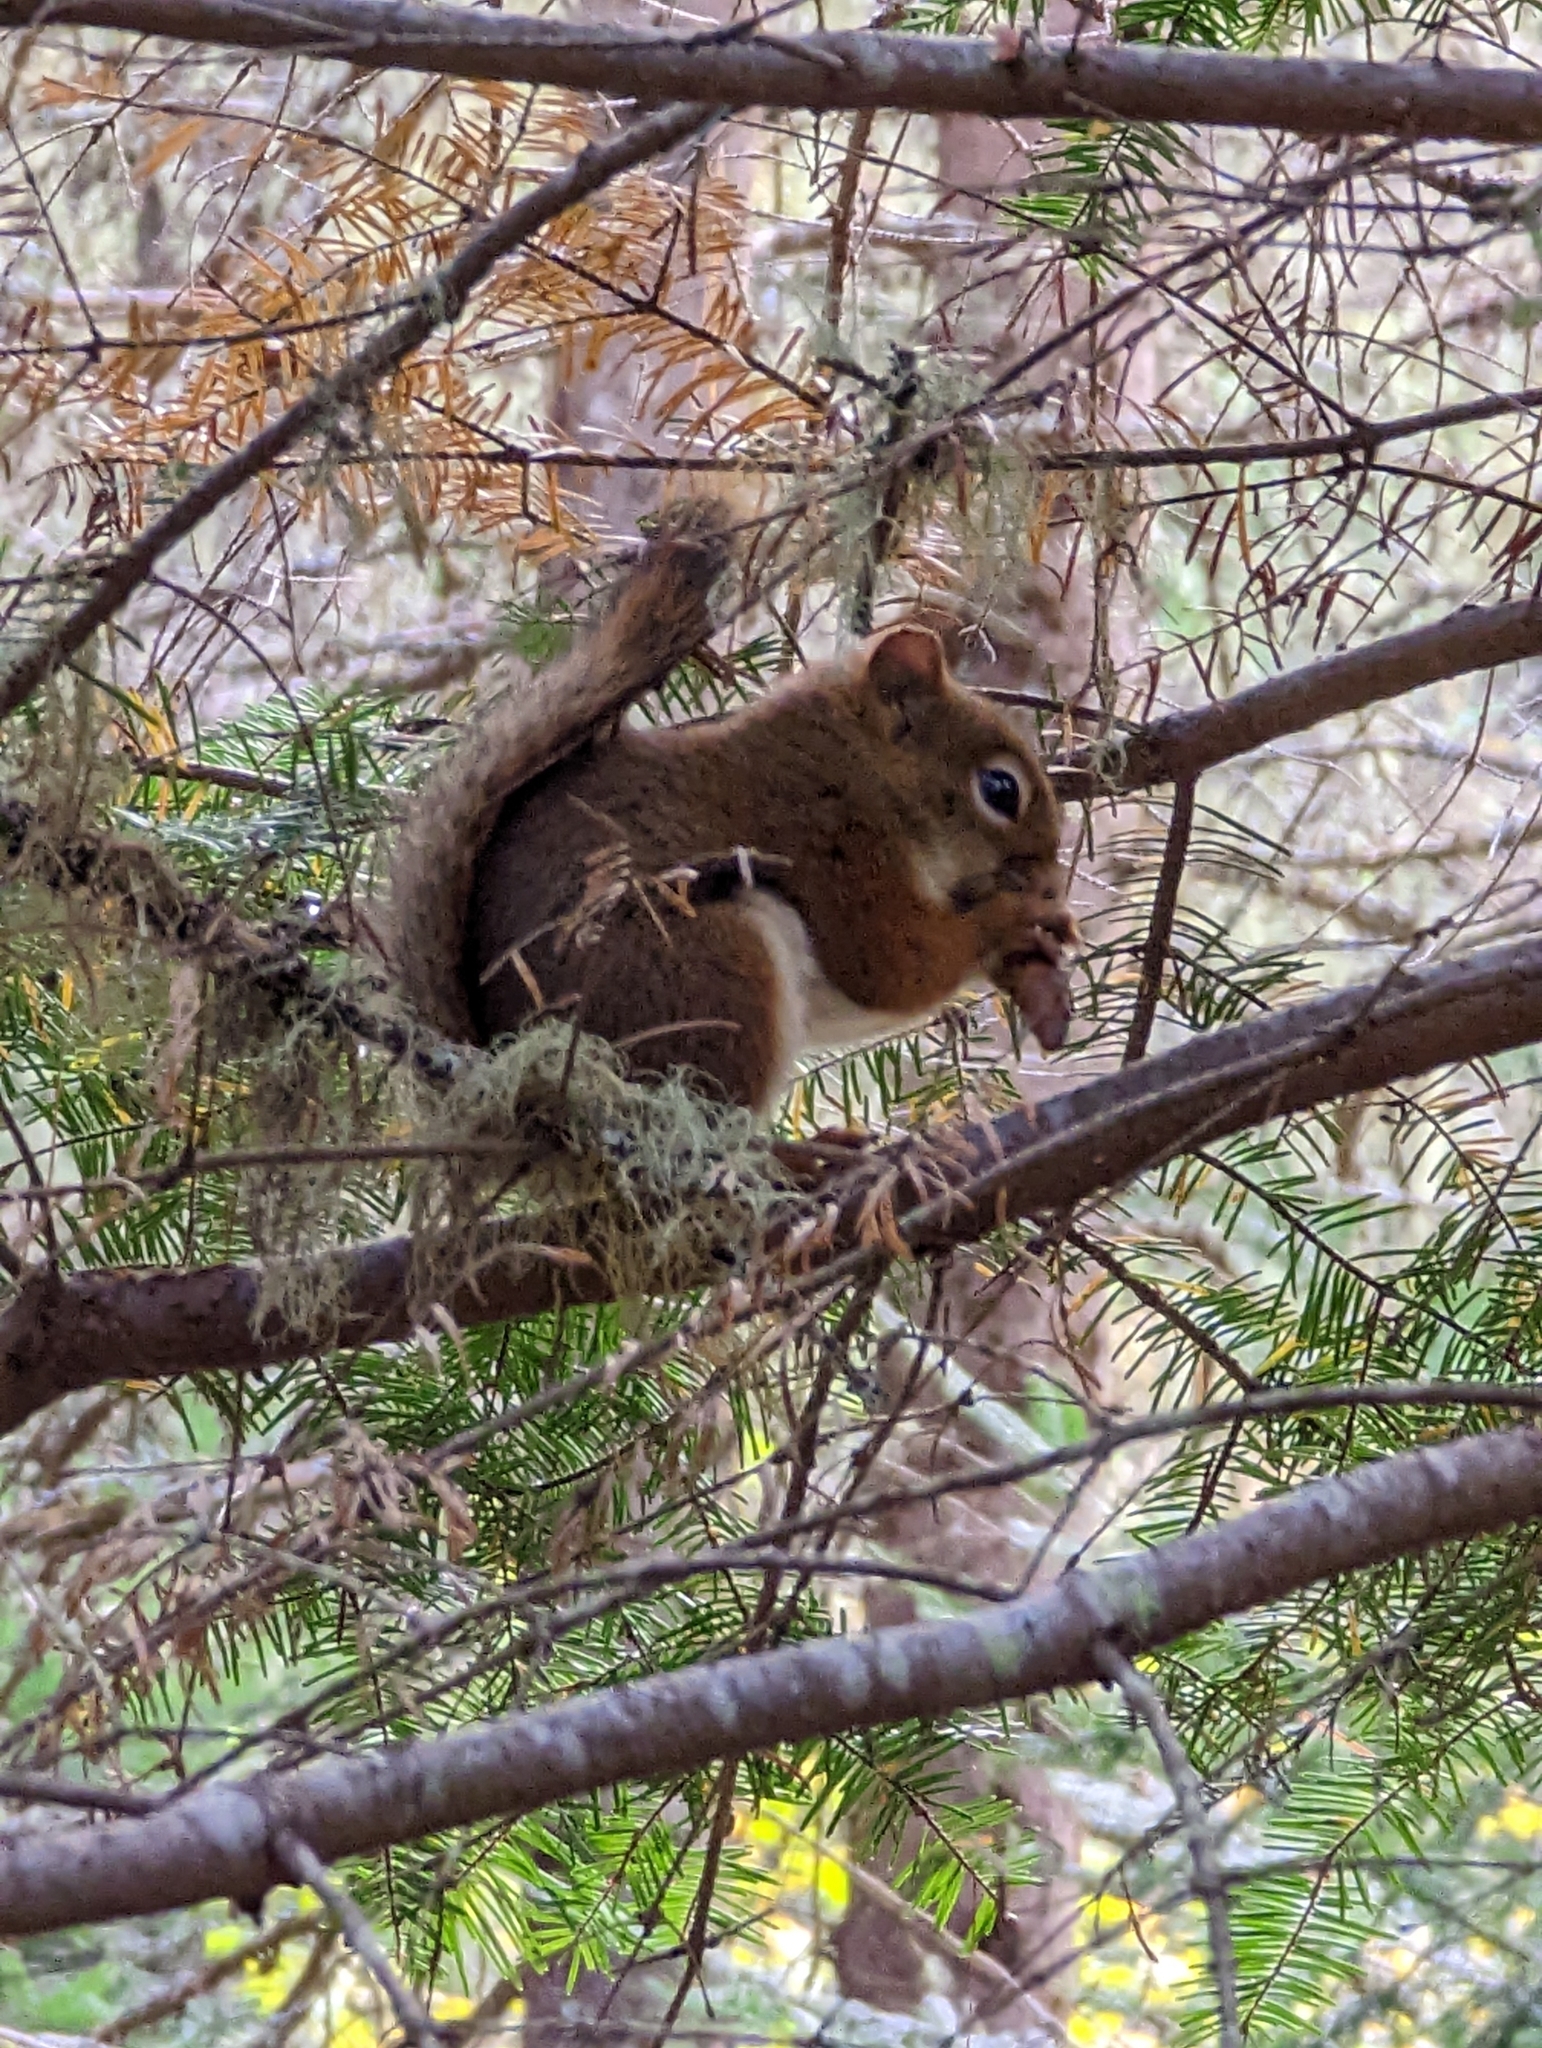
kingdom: Animalia
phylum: Chordata
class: Mammalia
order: Rodentia
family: Sciuridae
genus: Tamiasciurus
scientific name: Tamiasciurus hudsonicus
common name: Red squirrel
